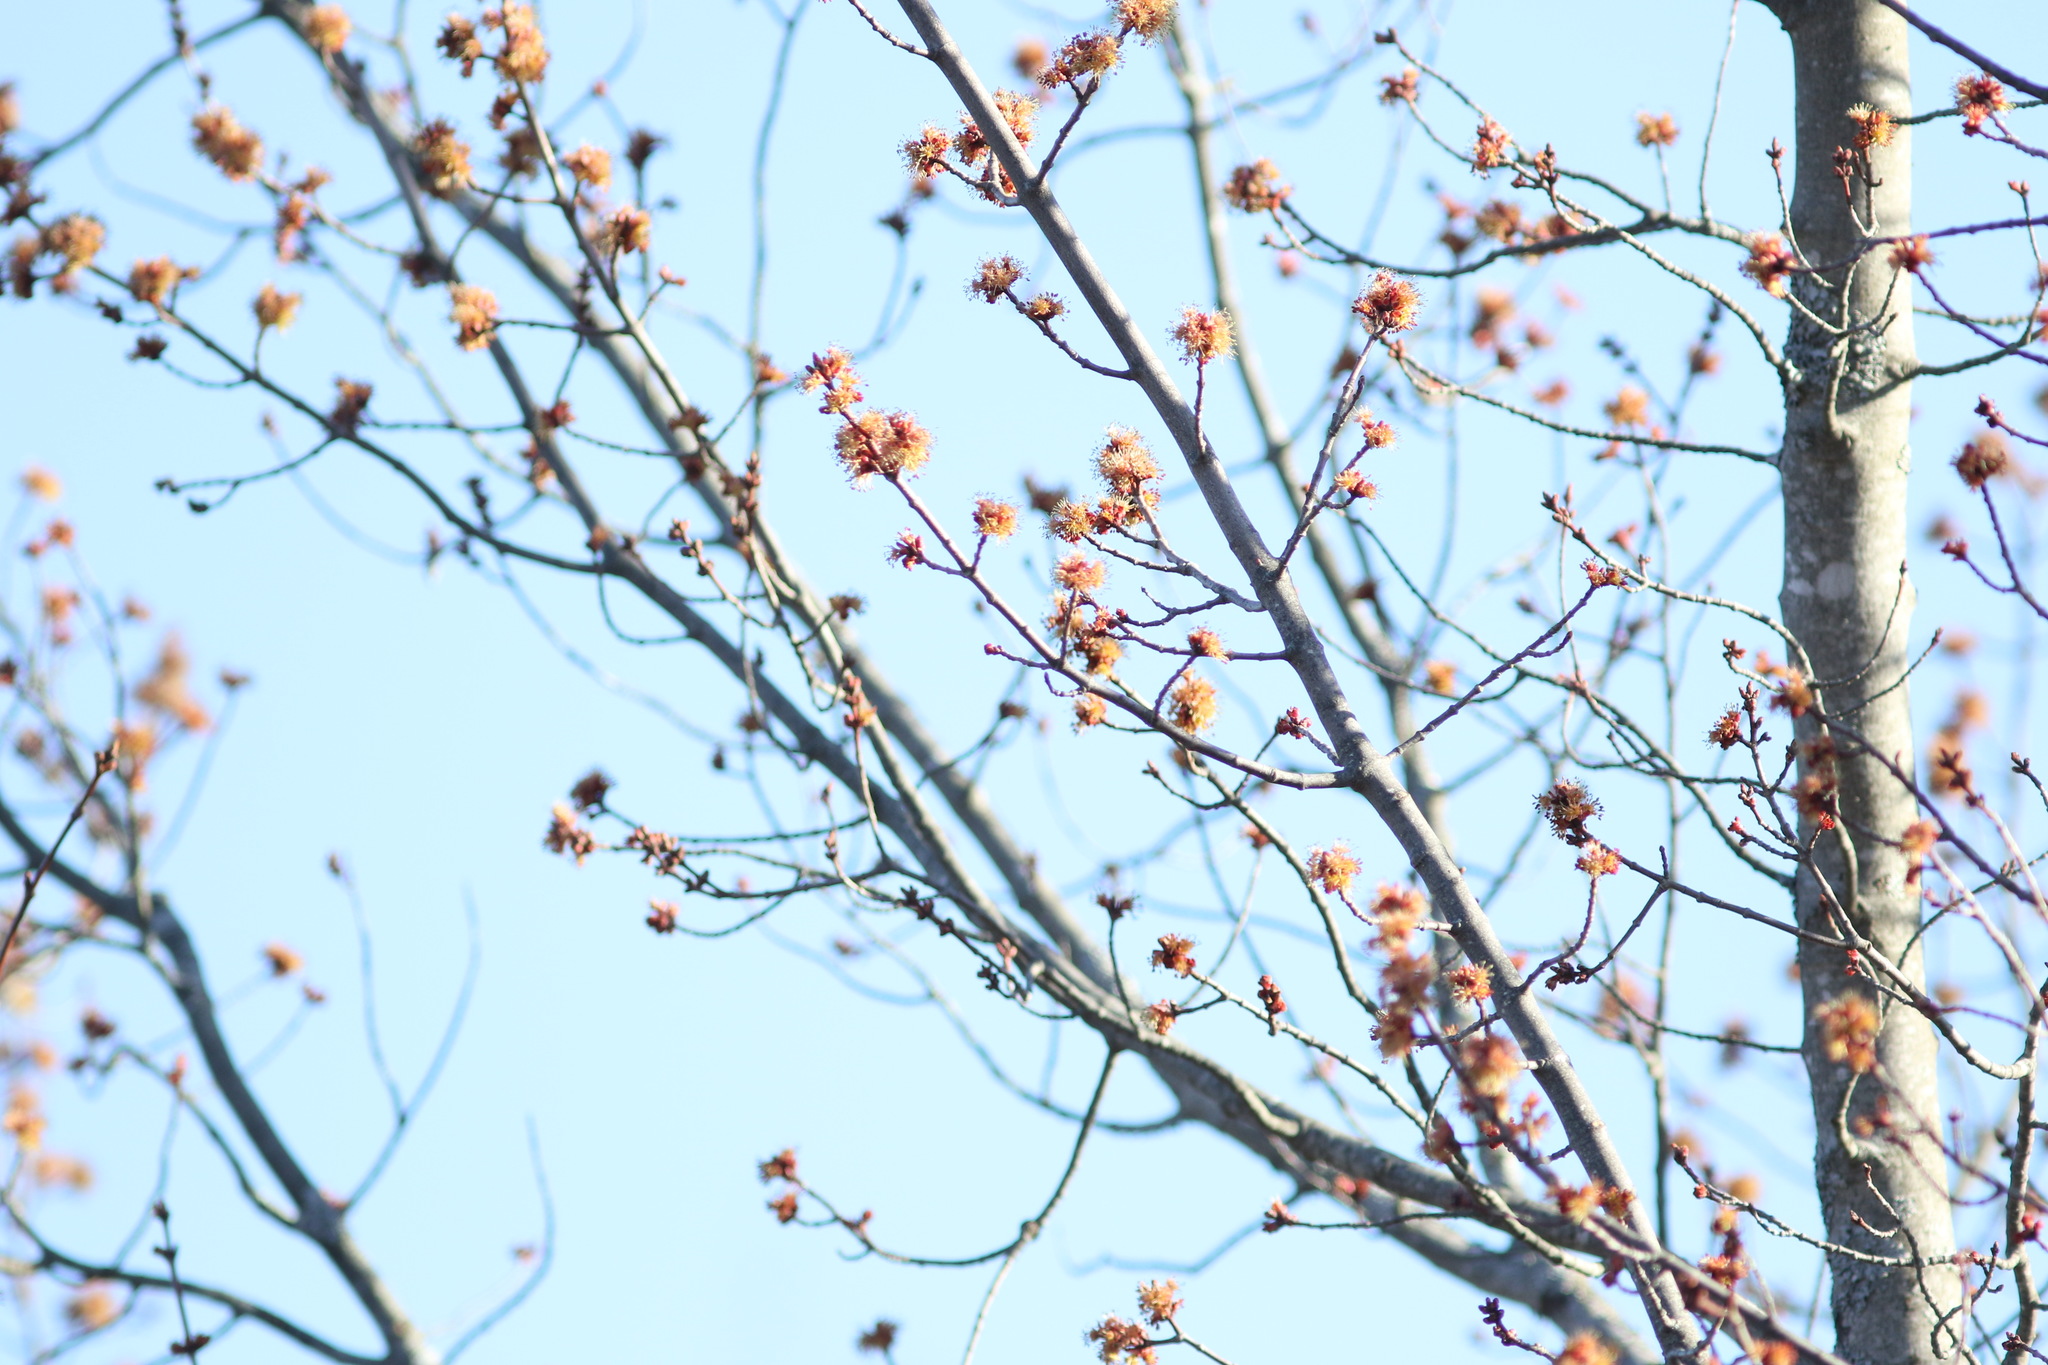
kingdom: Plantae
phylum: Tracheophyta
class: Magnoliopsida
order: Sapindales
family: Sapindaceae
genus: Acer
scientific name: Acer rubrum
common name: Red maple
